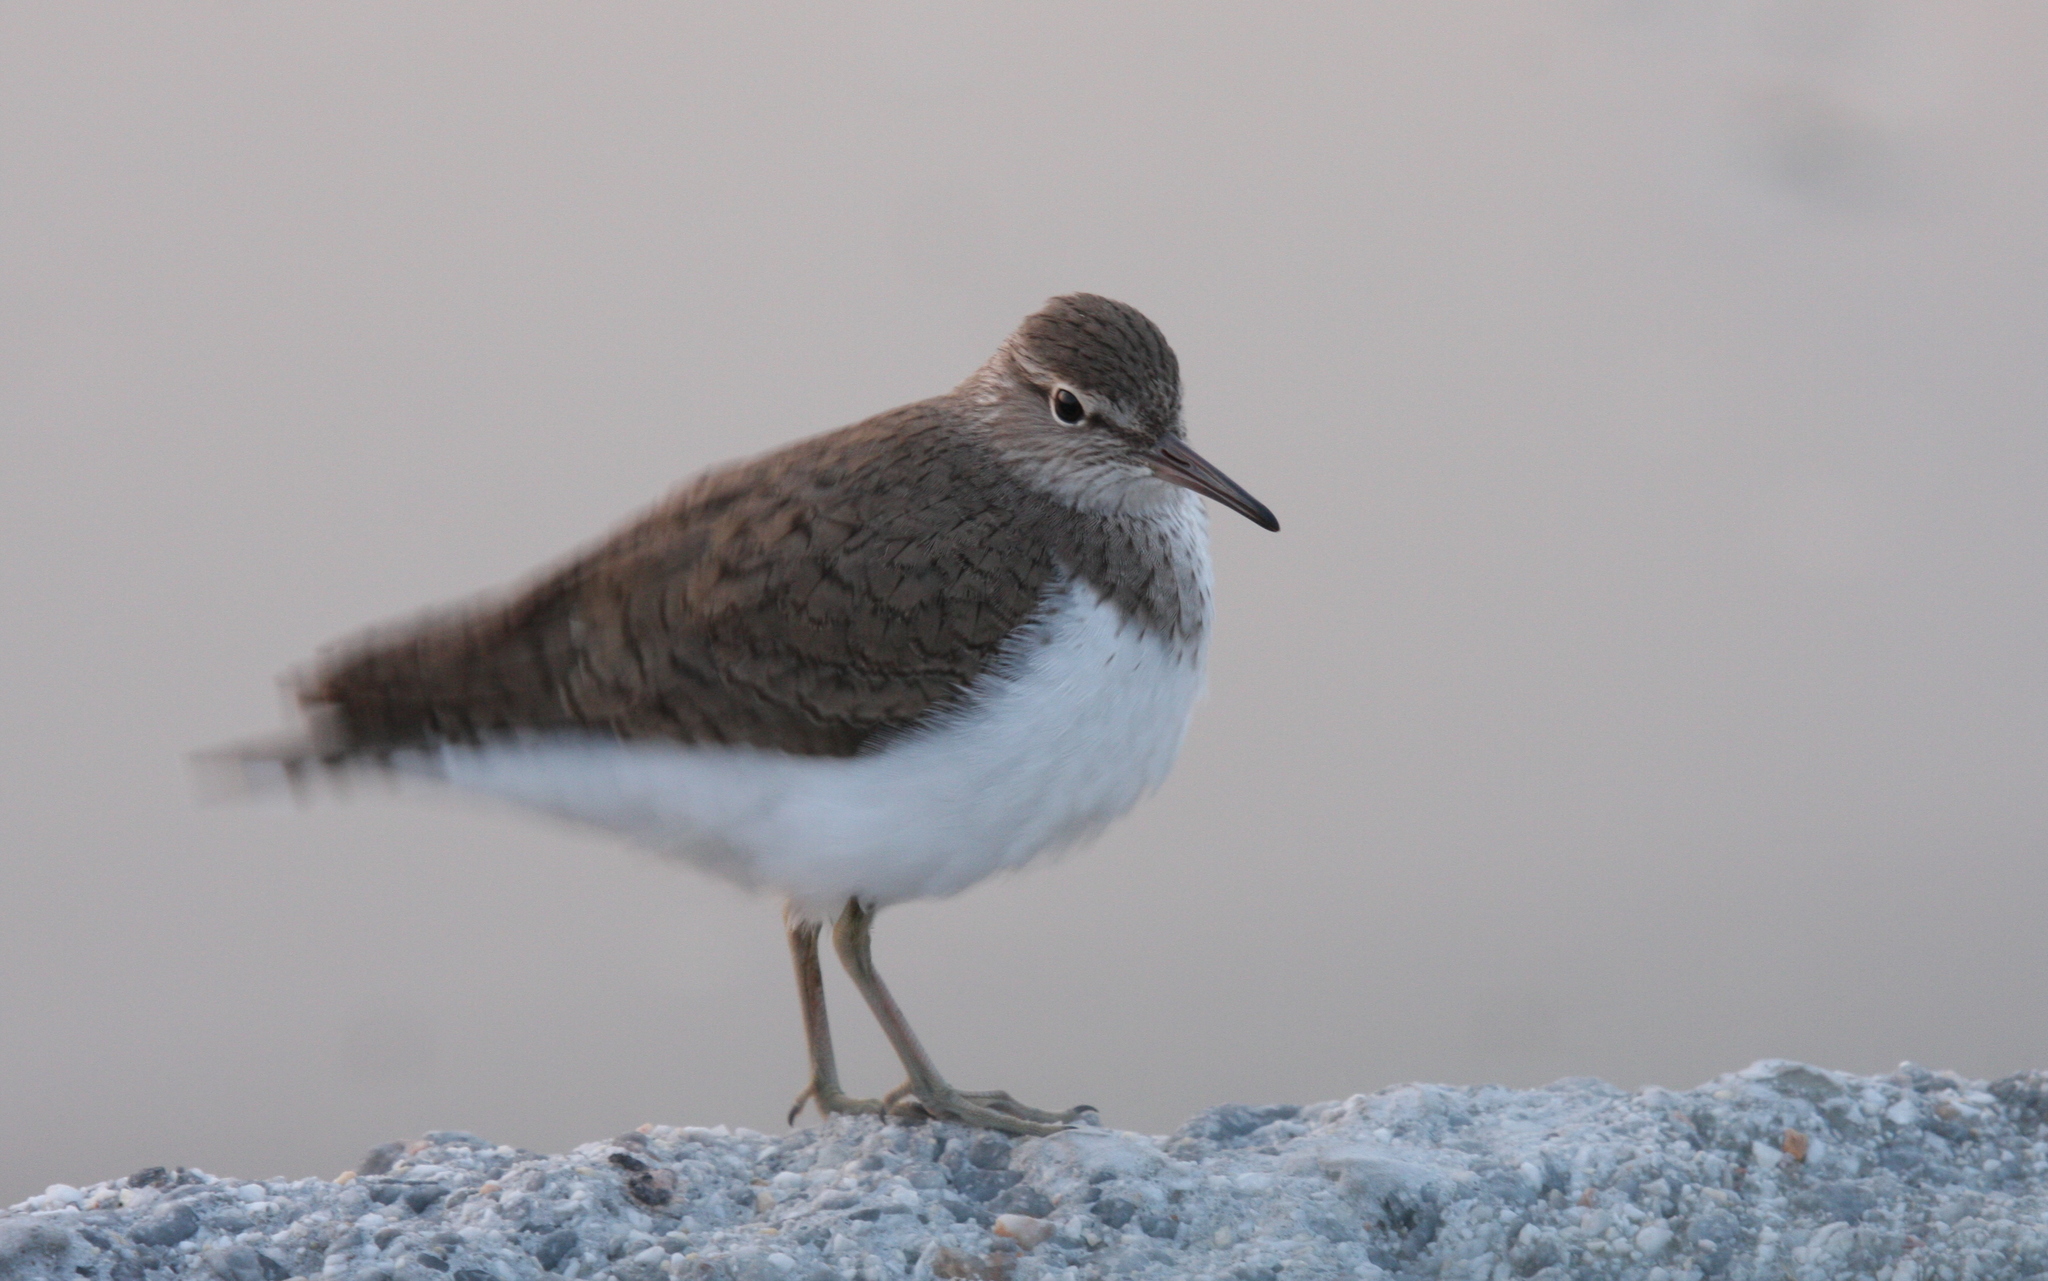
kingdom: Animalia
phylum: Chordata
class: Aves
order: Charadriiformes
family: Scolopacidae
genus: Actitis
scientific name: Actitis hypoleucos
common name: Common sandpiper
